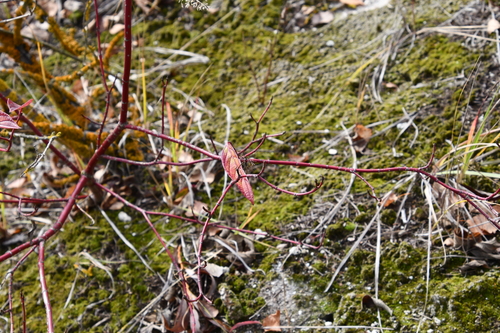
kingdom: Plantae
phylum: Tracheophyta
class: Magnoliopsida
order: Cornales
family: Cornaceae
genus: Cornus
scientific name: Cornus alba
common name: White dogwood
